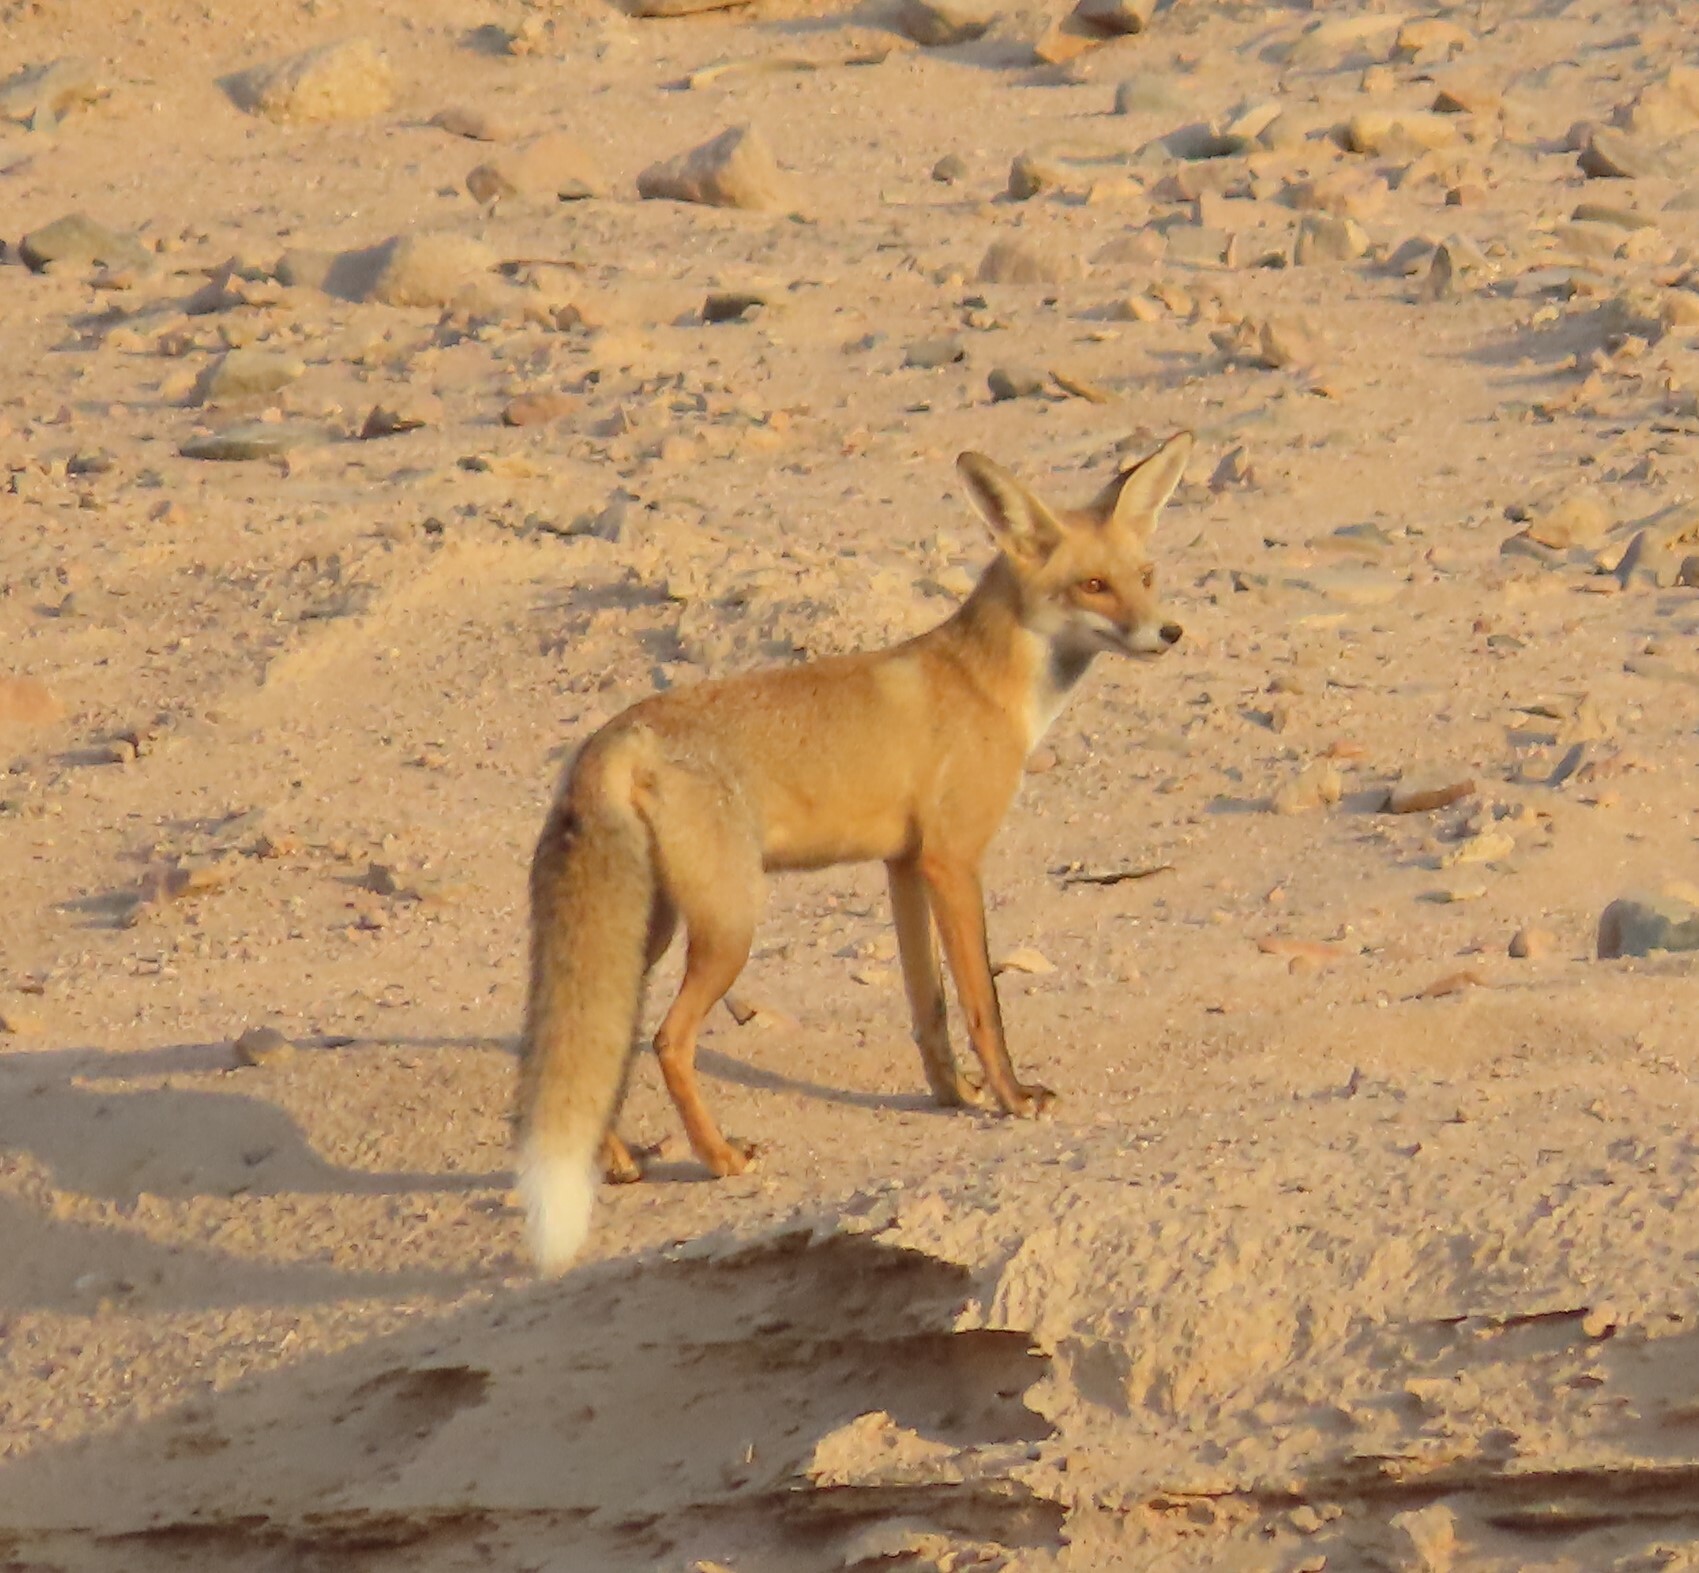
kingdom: Animalia
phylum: Chordata
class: Mammalia
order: Carnivora
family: Canidae
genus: Vulpes
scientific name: Vulpes vulpes
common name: Red fox
